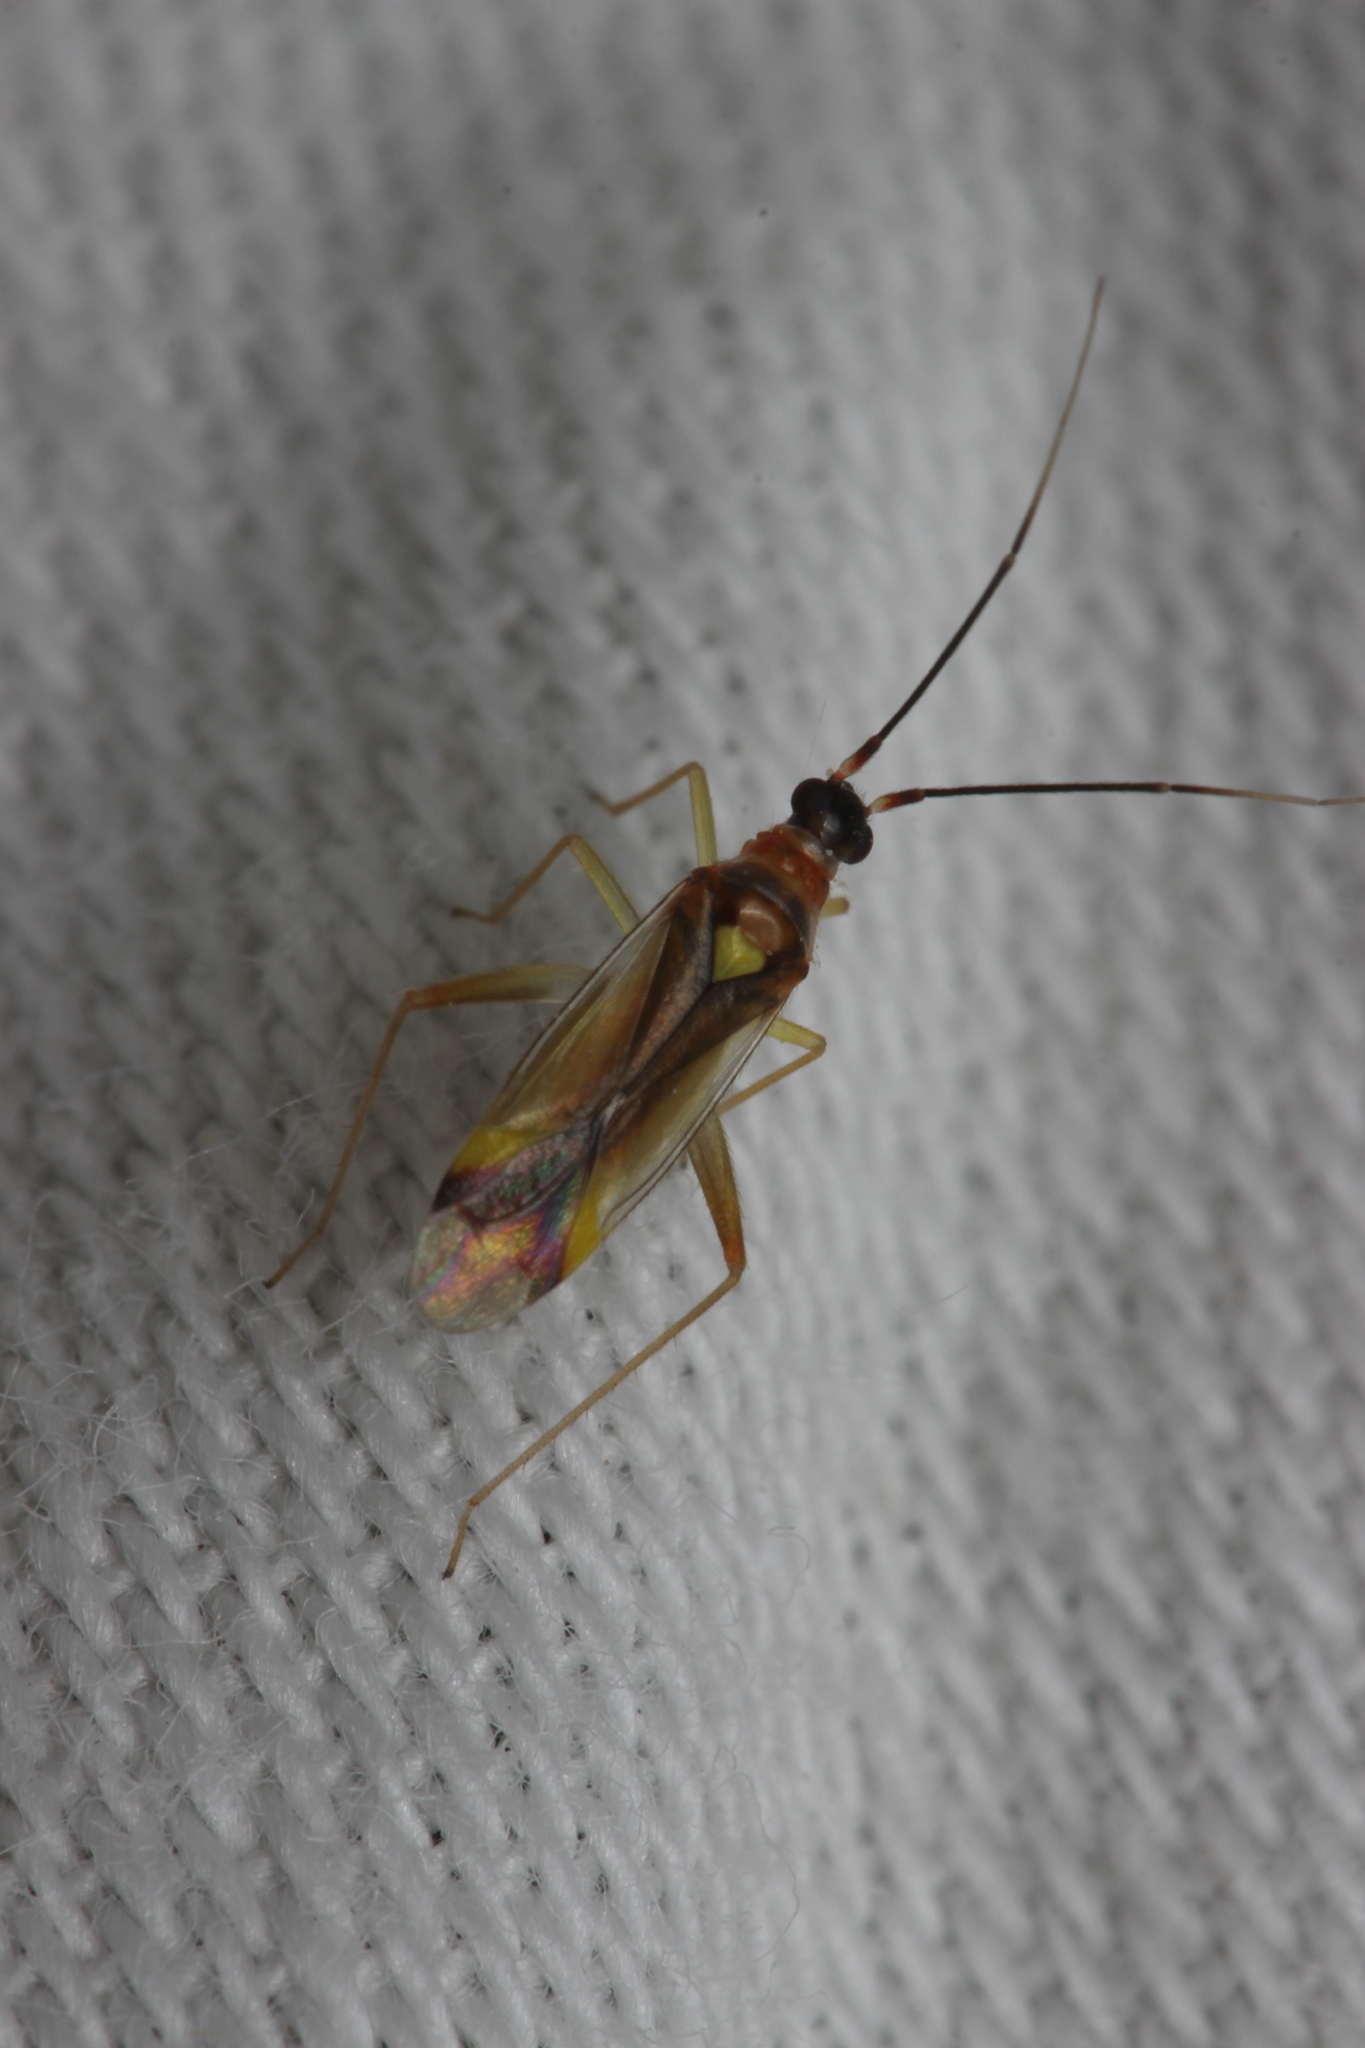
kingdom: Animalia
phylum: Arthropoda
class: Insecta
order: Hemiptera
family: Miridae
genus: Campyloneura
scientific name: Campyloneura virgula
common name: Predatory bug
